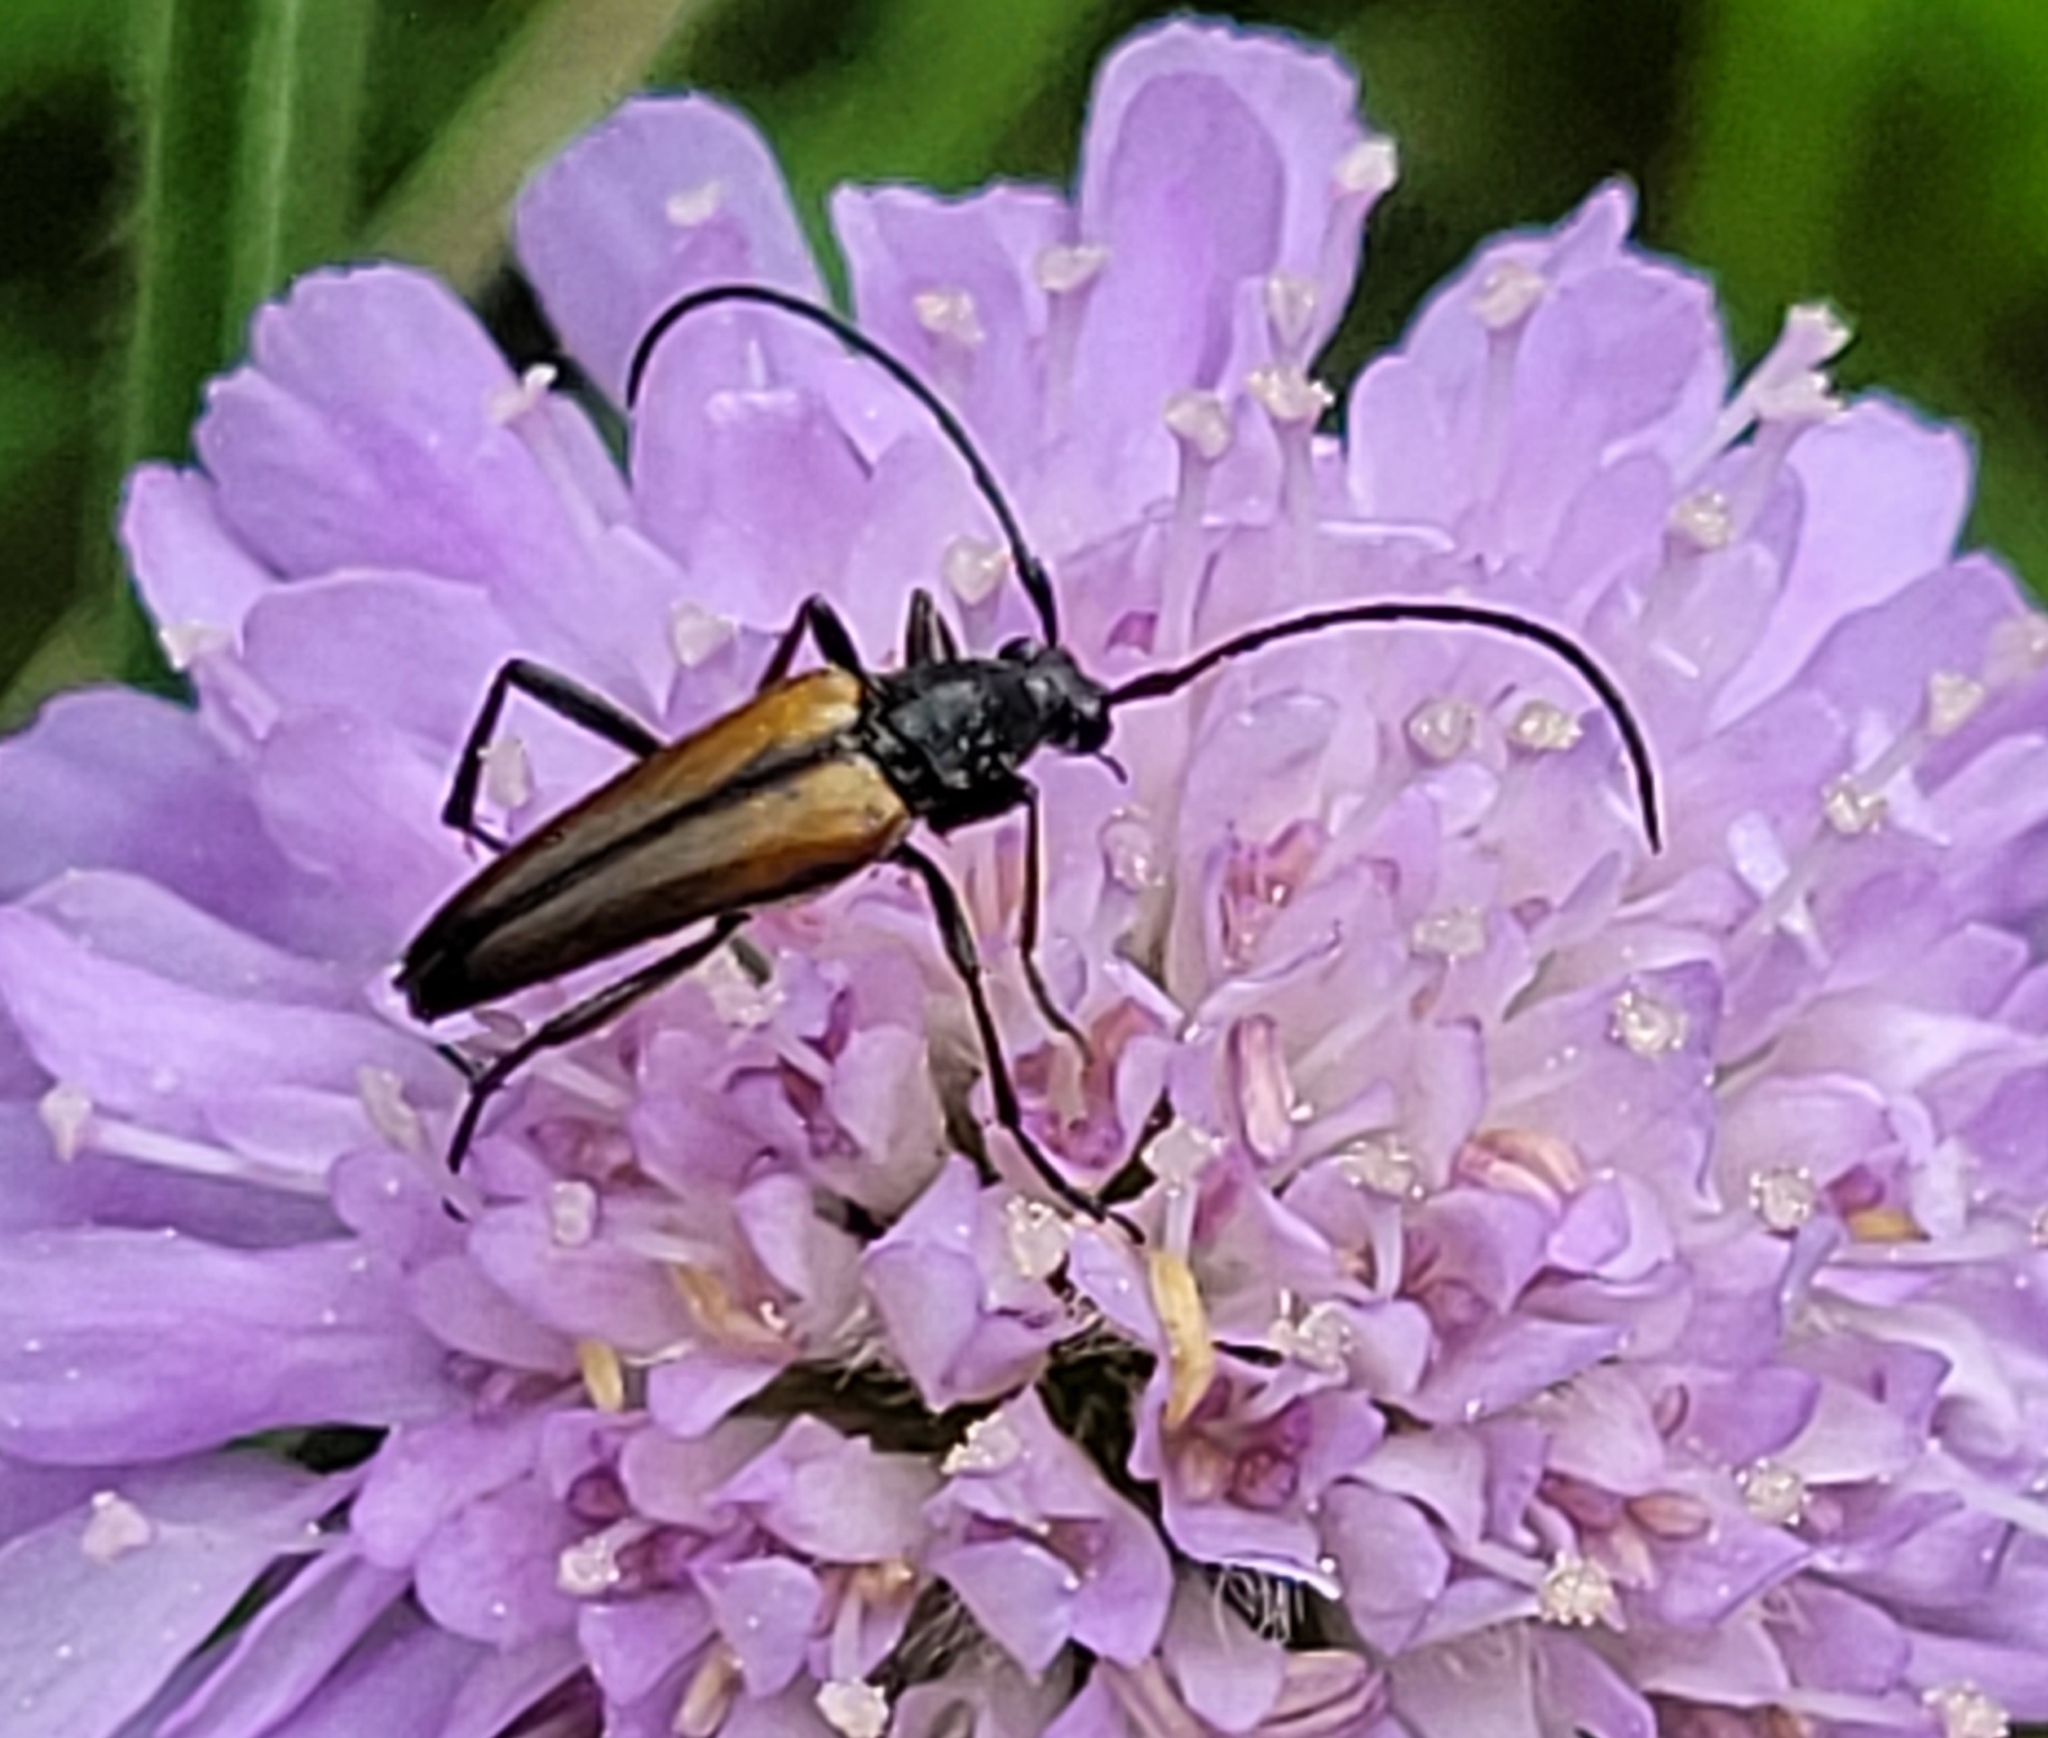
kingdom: Animalia
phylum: Arthropoda
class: Insecta
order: Coleoptera
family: Cerambycidae
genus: Stenurella
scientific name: Stenurella melanura
